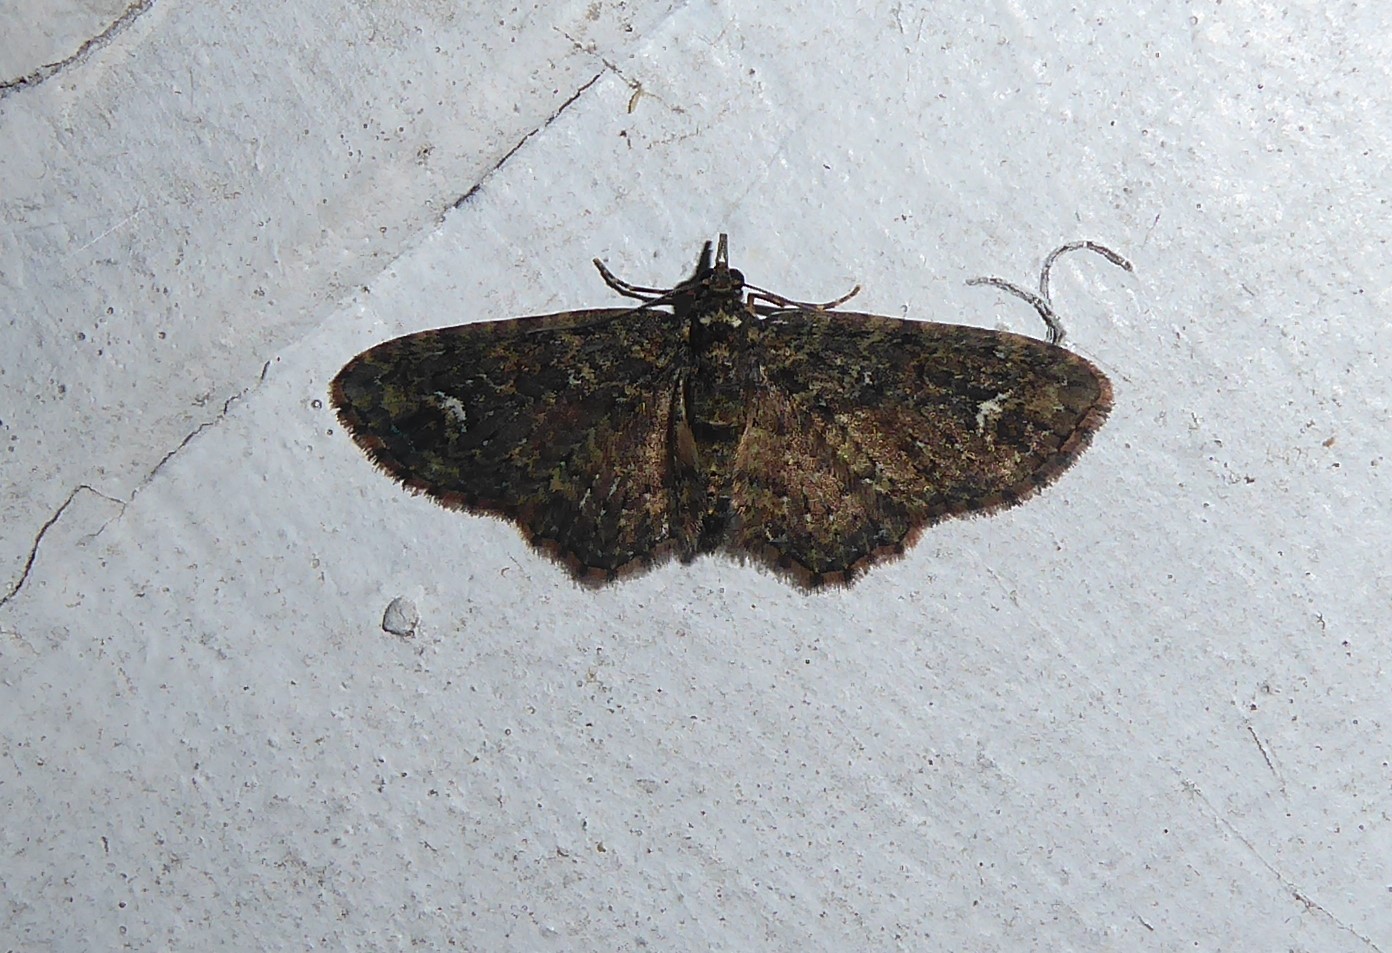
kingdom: Animalia
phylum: Arthropoda
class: Insecta
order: Lepidoptera
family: Geometridae
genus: Pasiphilodes
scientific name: Pasiphilodes testulata
